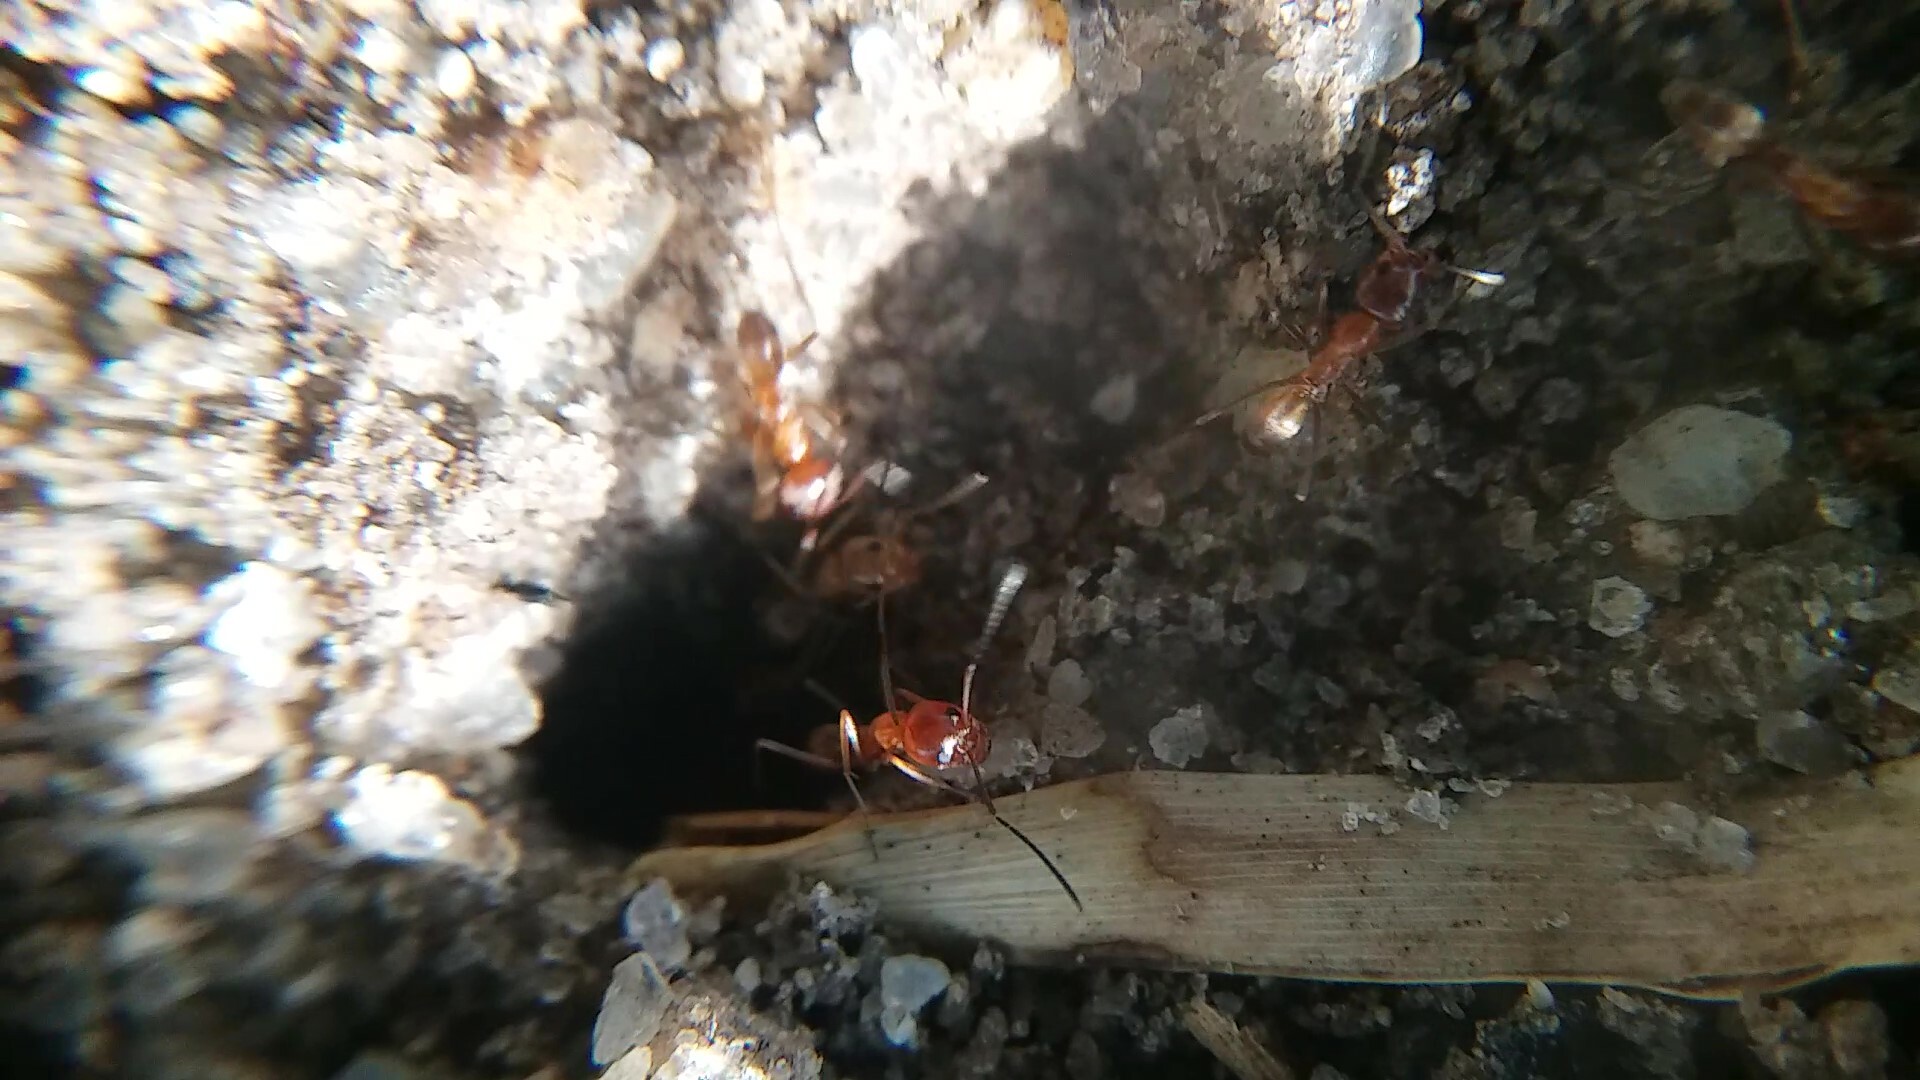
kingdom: Animalia
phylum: Arthropoda
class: Insecta
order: Hymenoptera
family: Formicidae
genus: Dorymyrmex
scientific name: Dorymyrmex bureni
